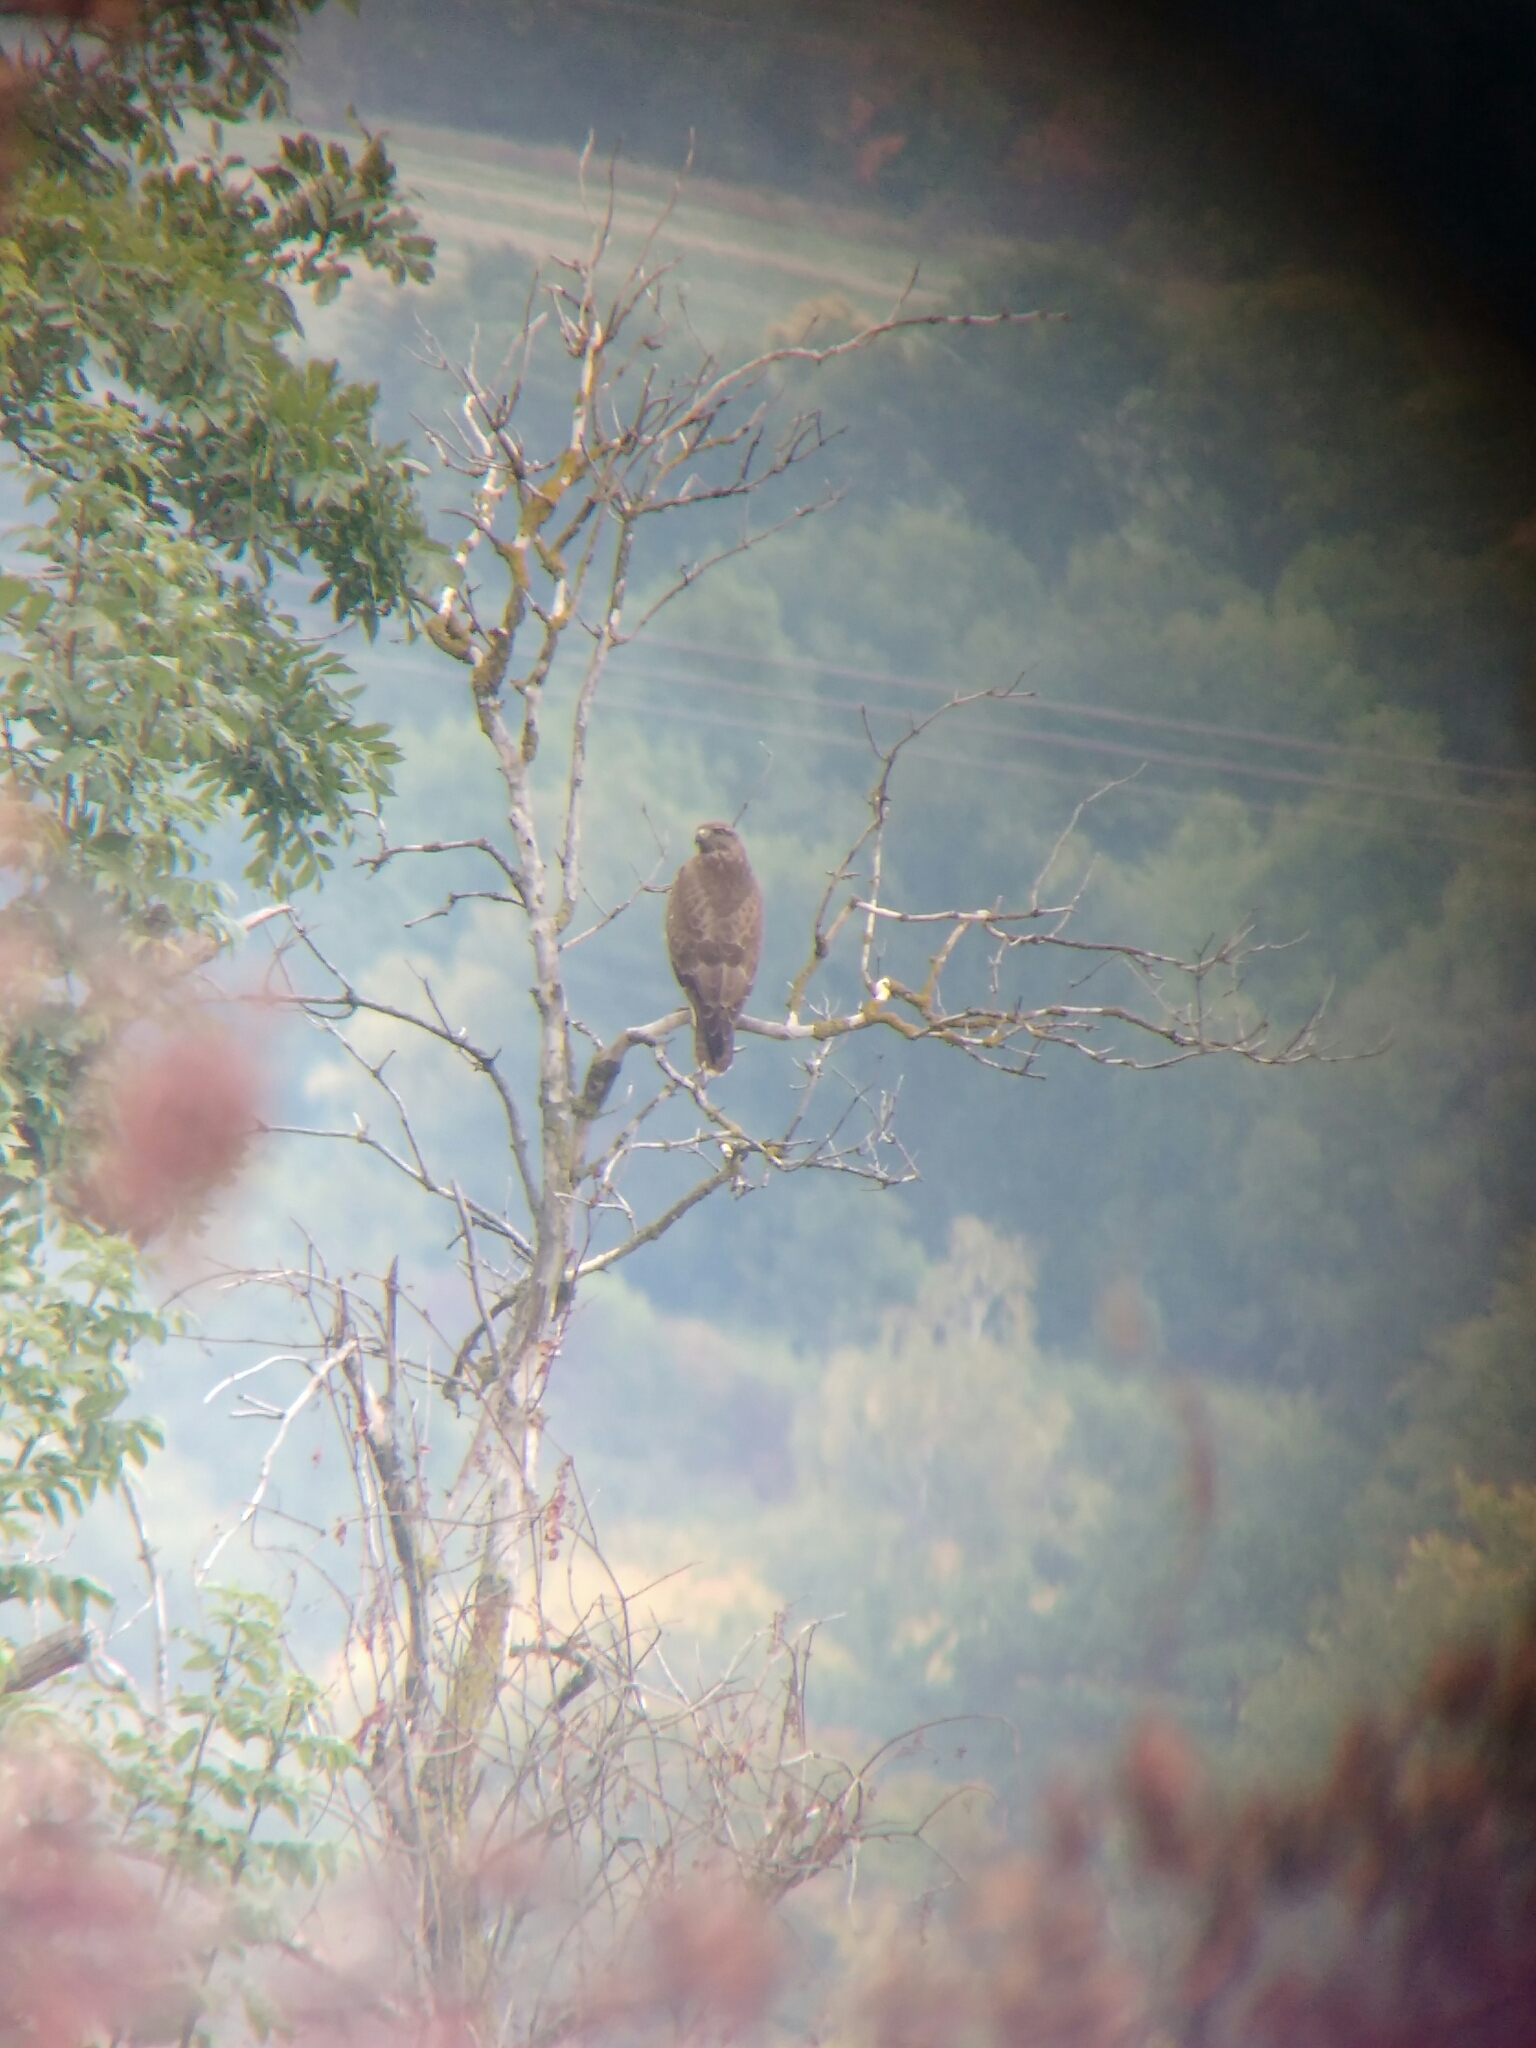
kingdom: Animalia
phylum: Chordata
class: Aves
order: Accipitriformes
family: Accipitridae
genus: Buteo
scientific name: Buteo buteo
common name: Common buzzard
